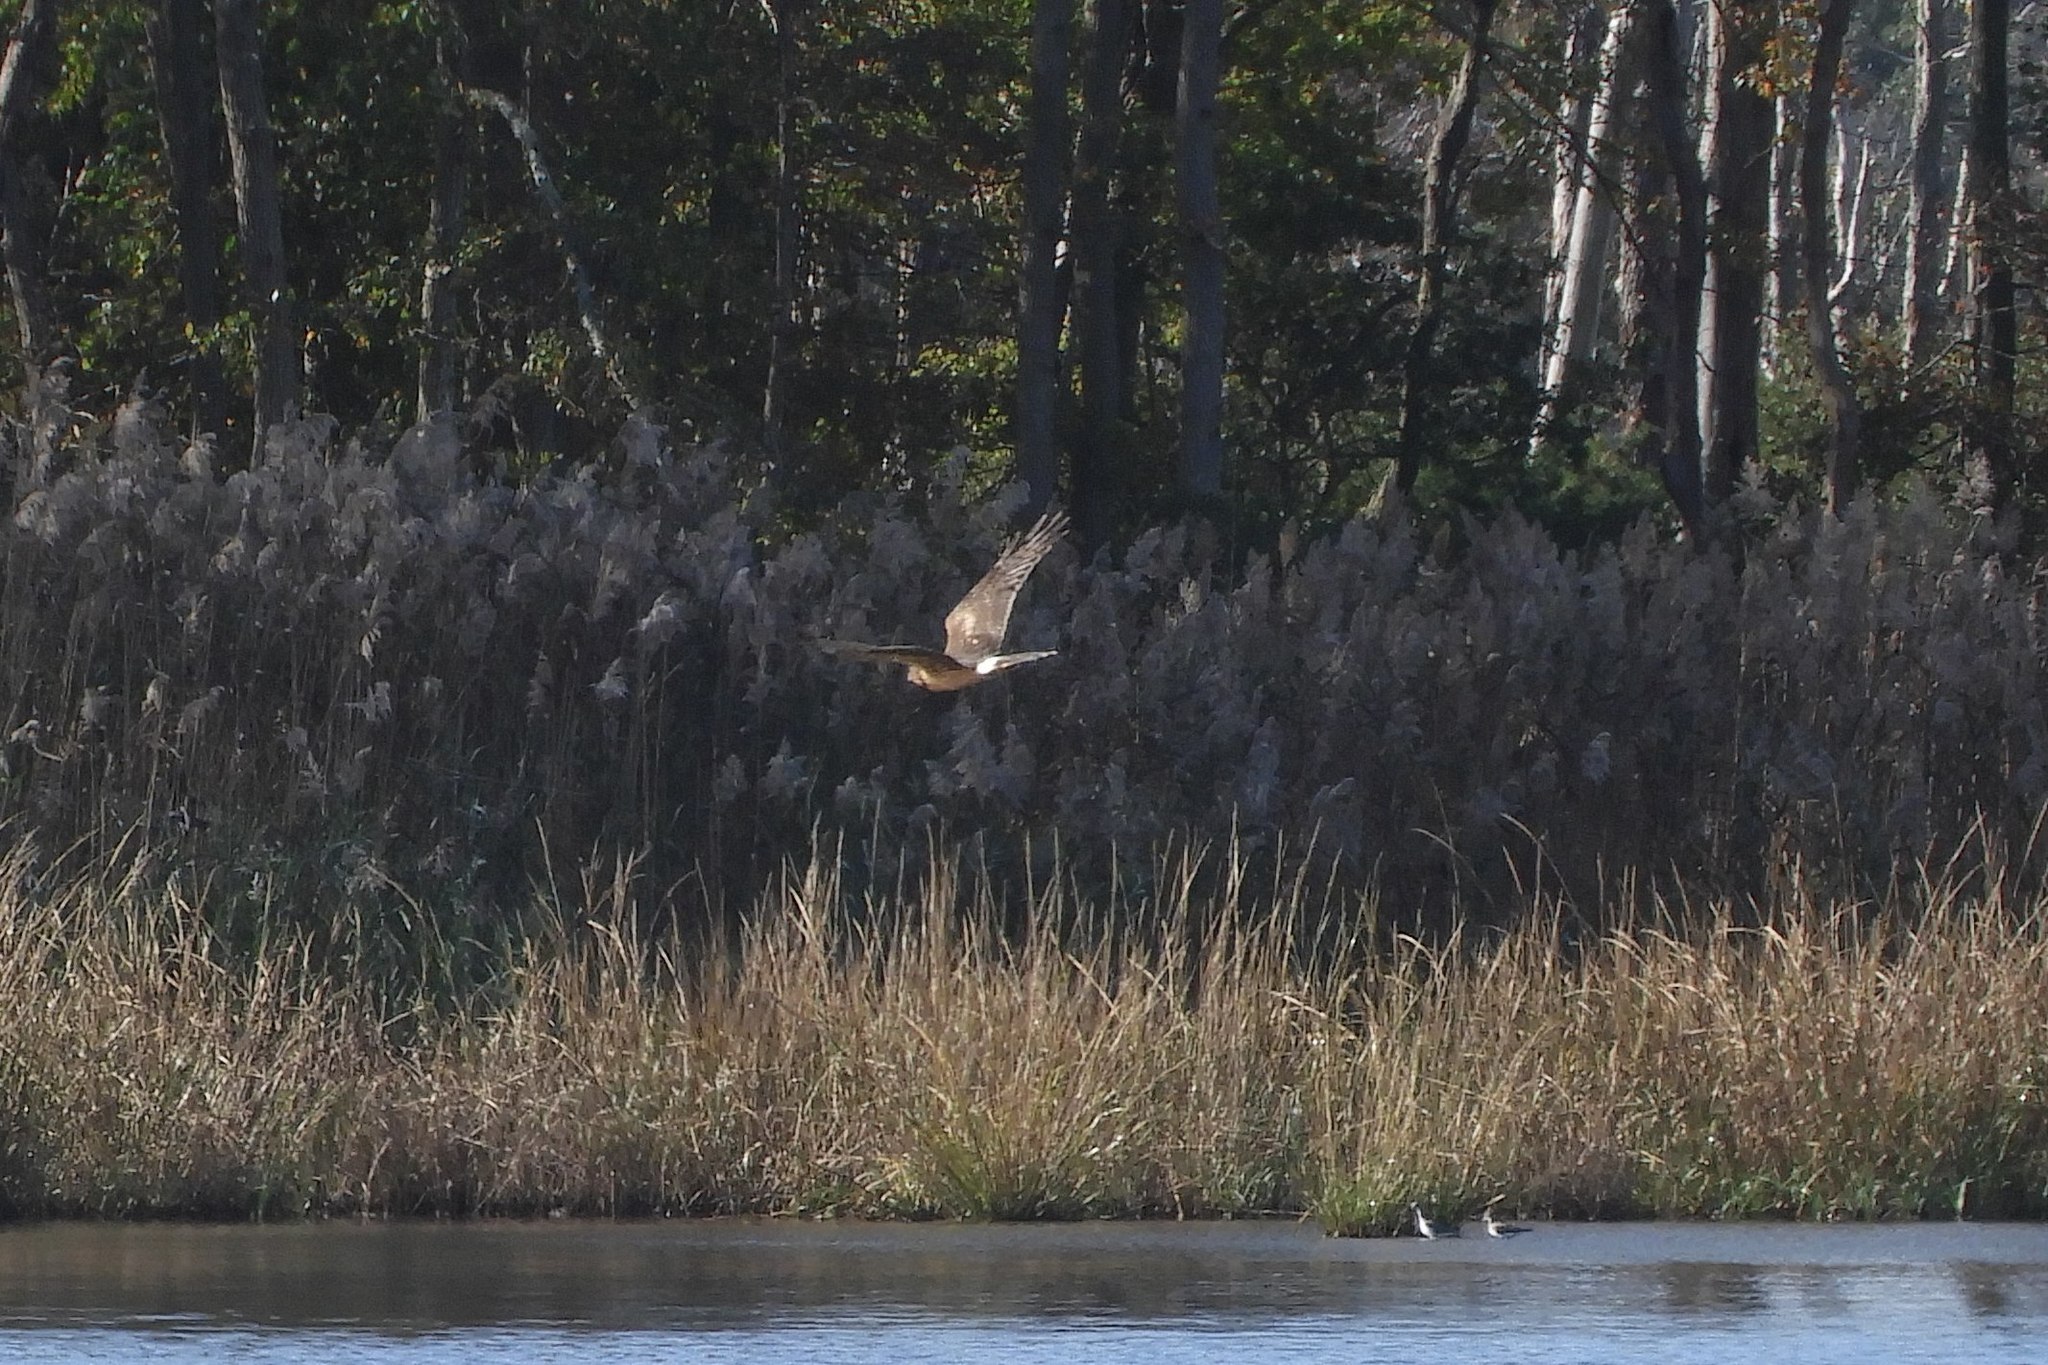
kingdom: Animalia
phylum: Chordata
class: Aves
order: Accipitriformes
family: Accipitridae
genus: Circus
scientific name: Circus cyaneus
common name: Hen harrier
